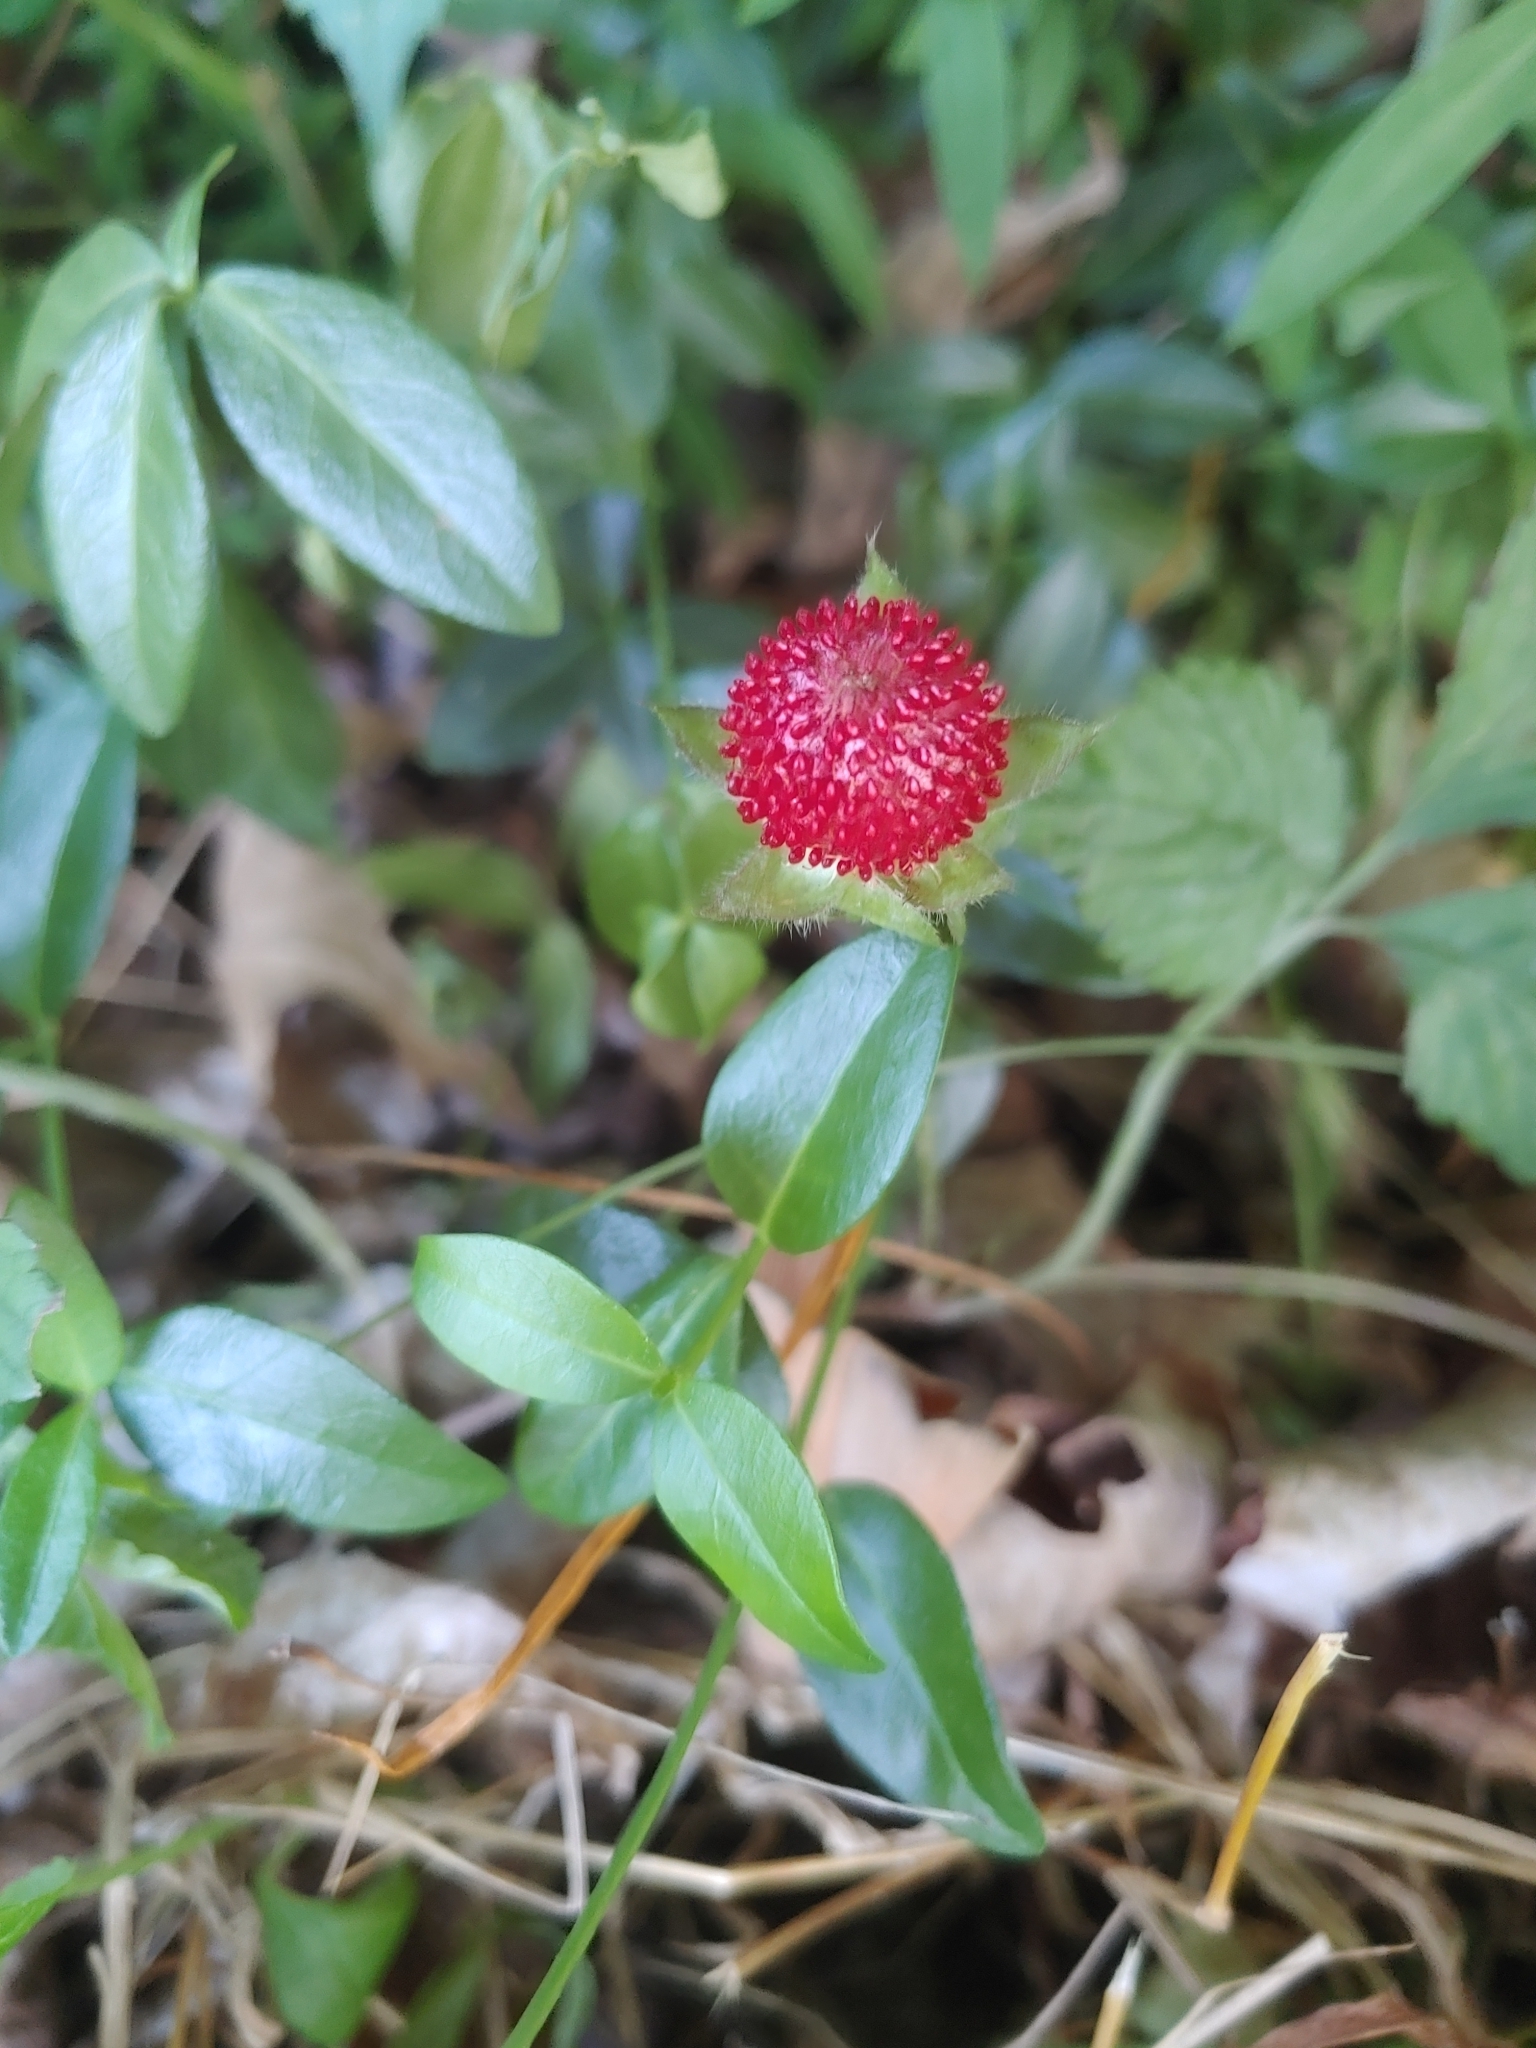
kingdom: Plantae
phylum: Tracheophyta
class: Magnoliopsida
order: Rosales
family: Rosaceae
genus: Potentilla
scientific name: Potentilla indica
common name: Yellow-flowered strawberry
